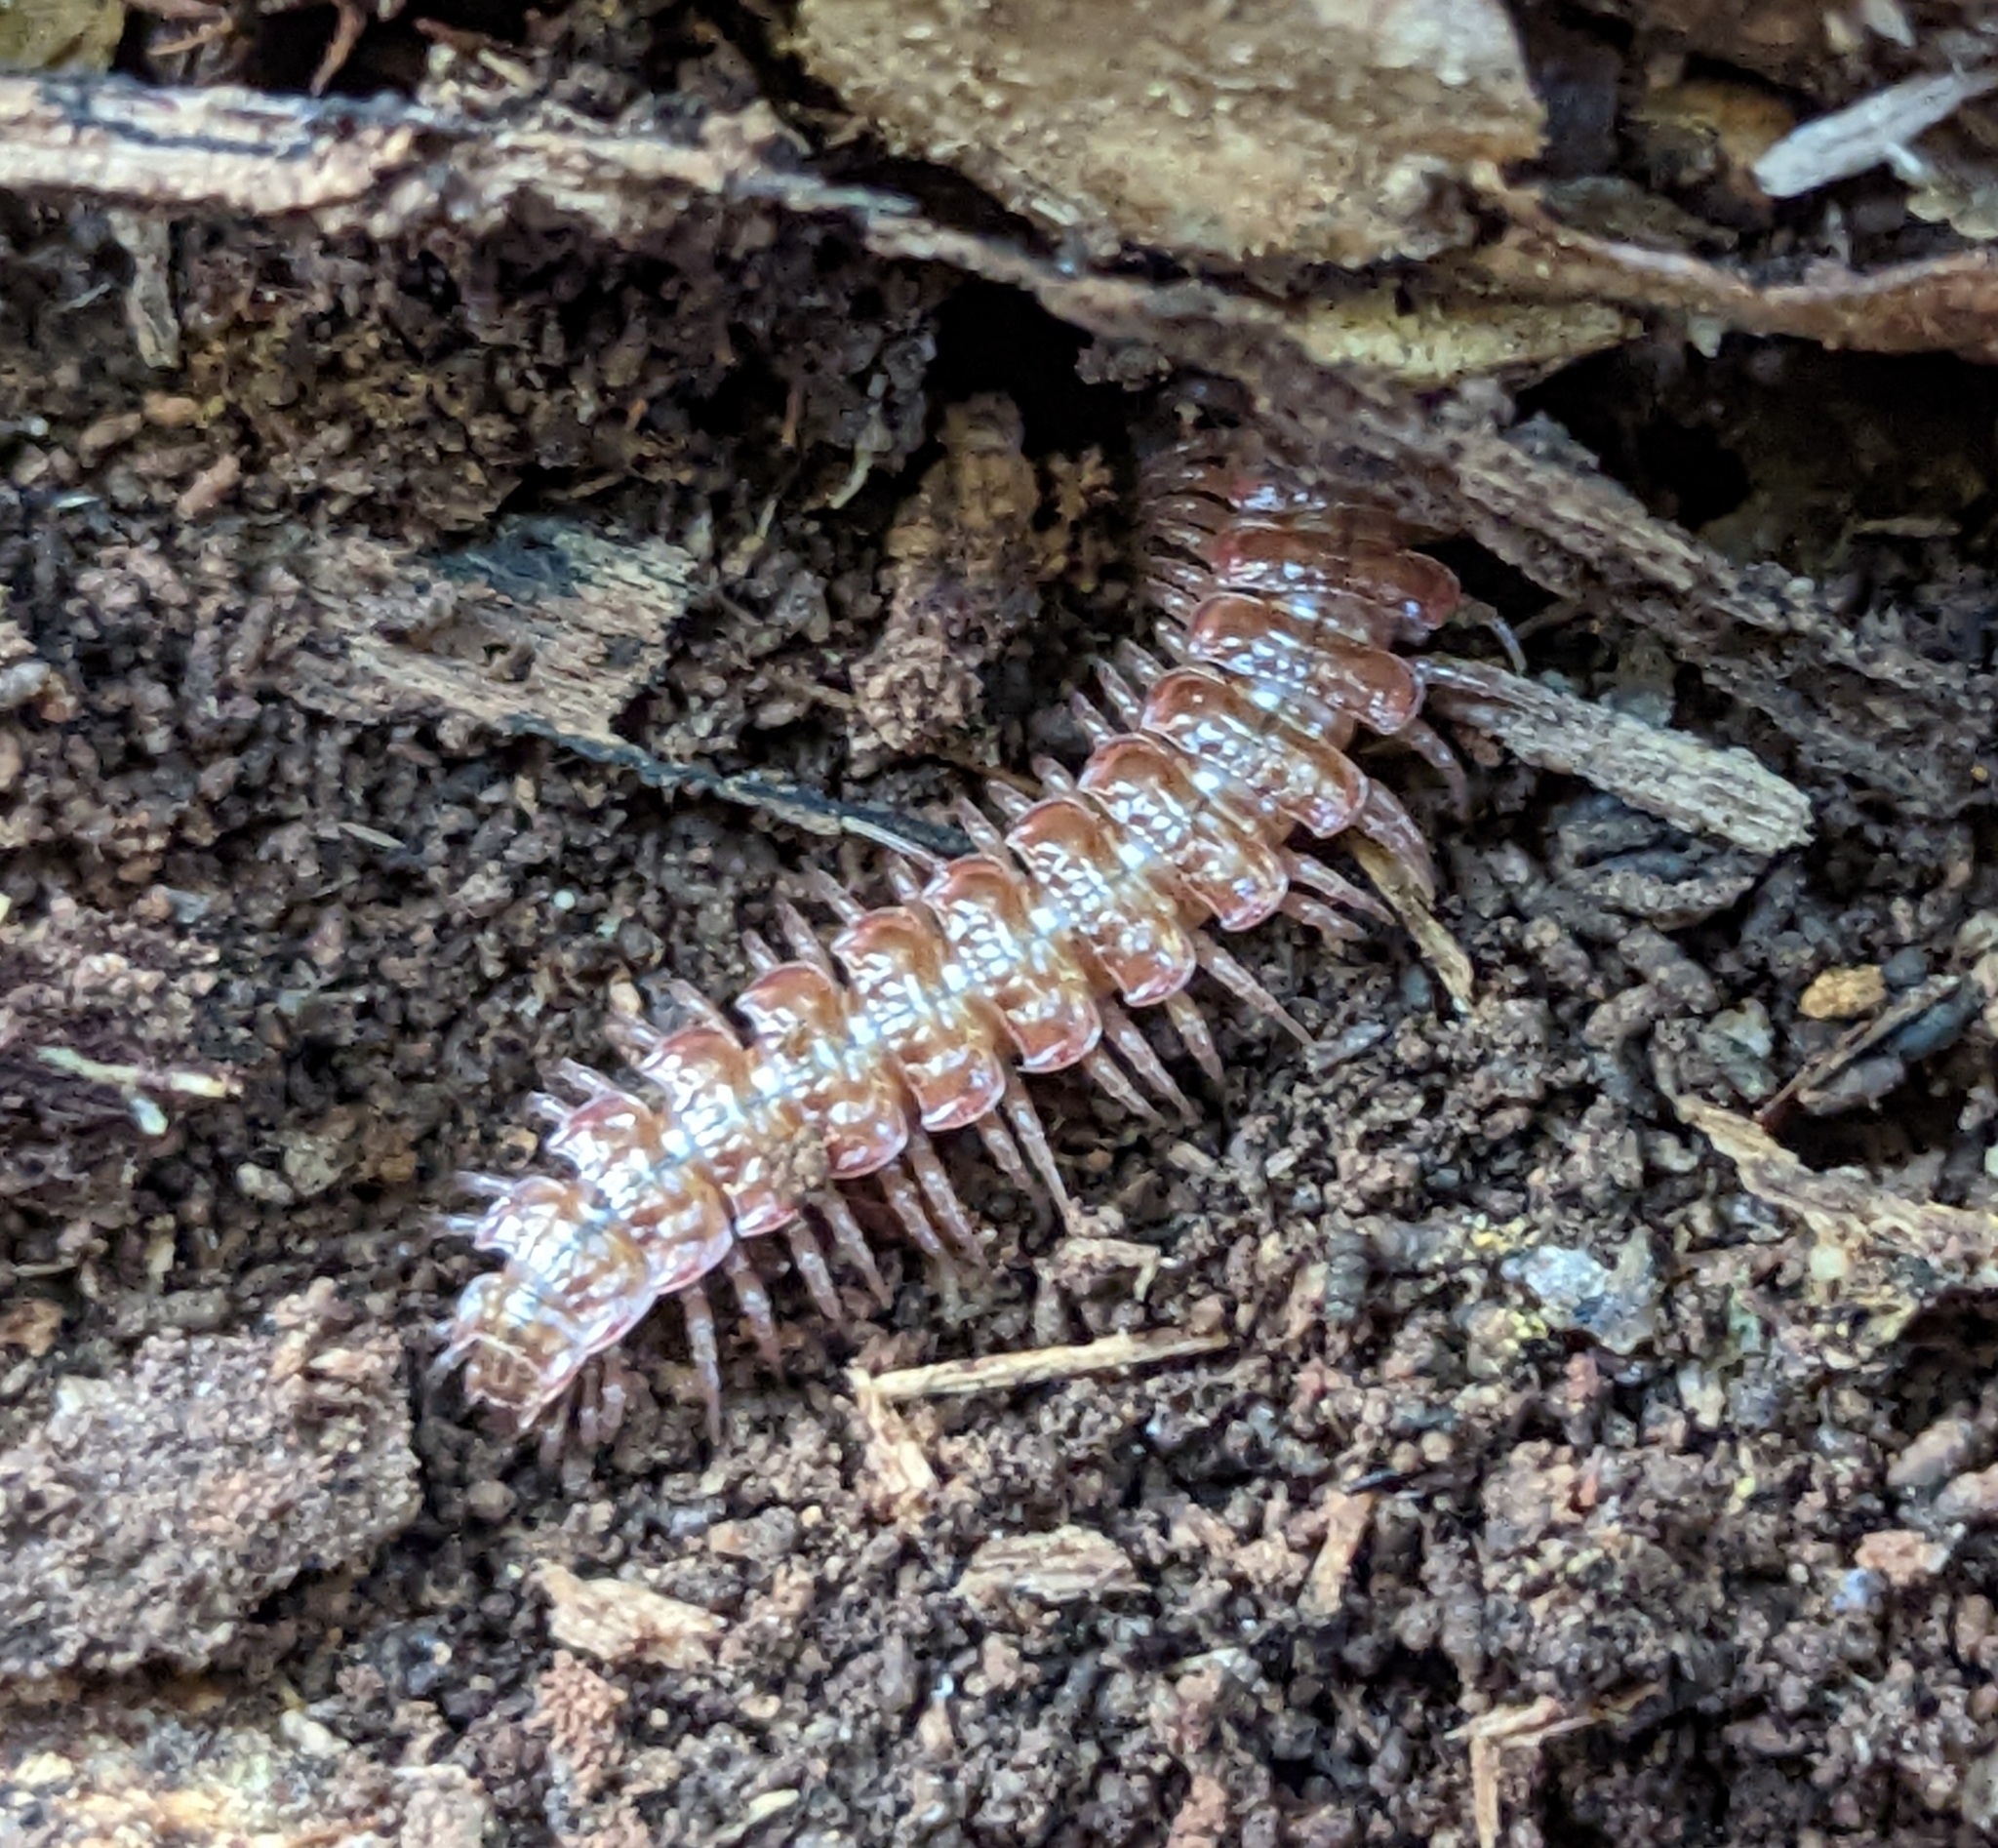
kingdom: Animalia
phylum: Arthropoda
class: Diplopoda
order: Polydesmida
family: Polydesmidae
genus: Pseudopolydesmus
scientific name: Pseudopolydesmus serratus
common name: Common pink flat-back millipede
